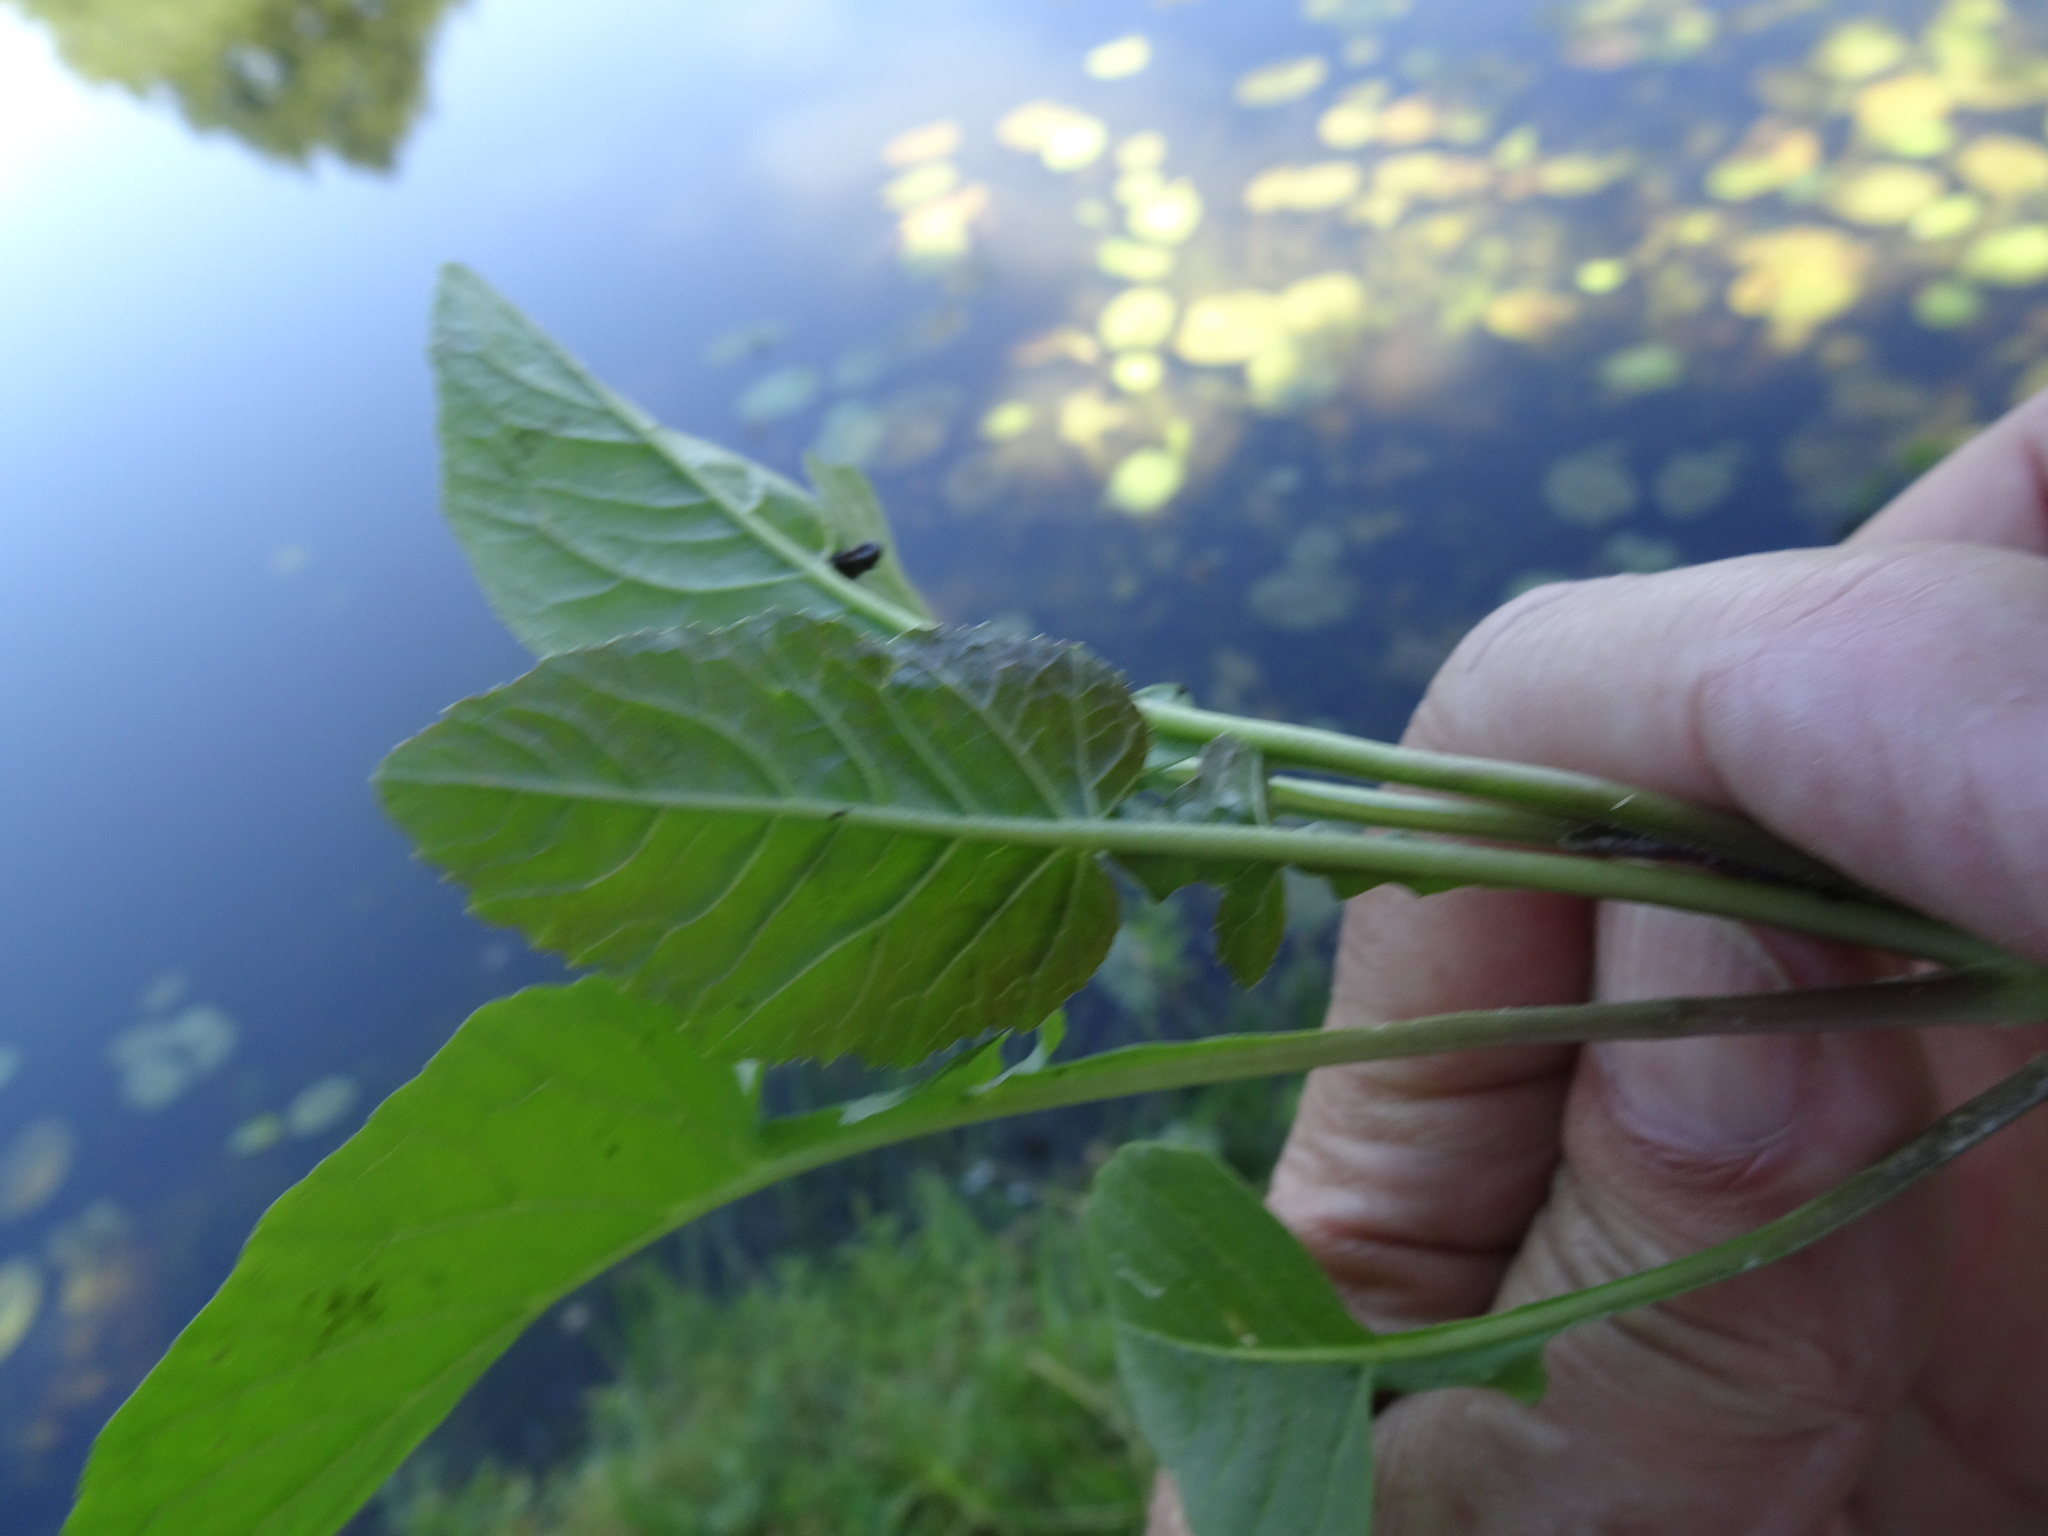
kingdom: Plantae
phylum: Tracheophyta
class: Magnoliopsida
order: Brassicales
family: Brassicaceae
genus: Rorippa
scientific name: Rorippa palustris
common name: Marsh yellow-cress
